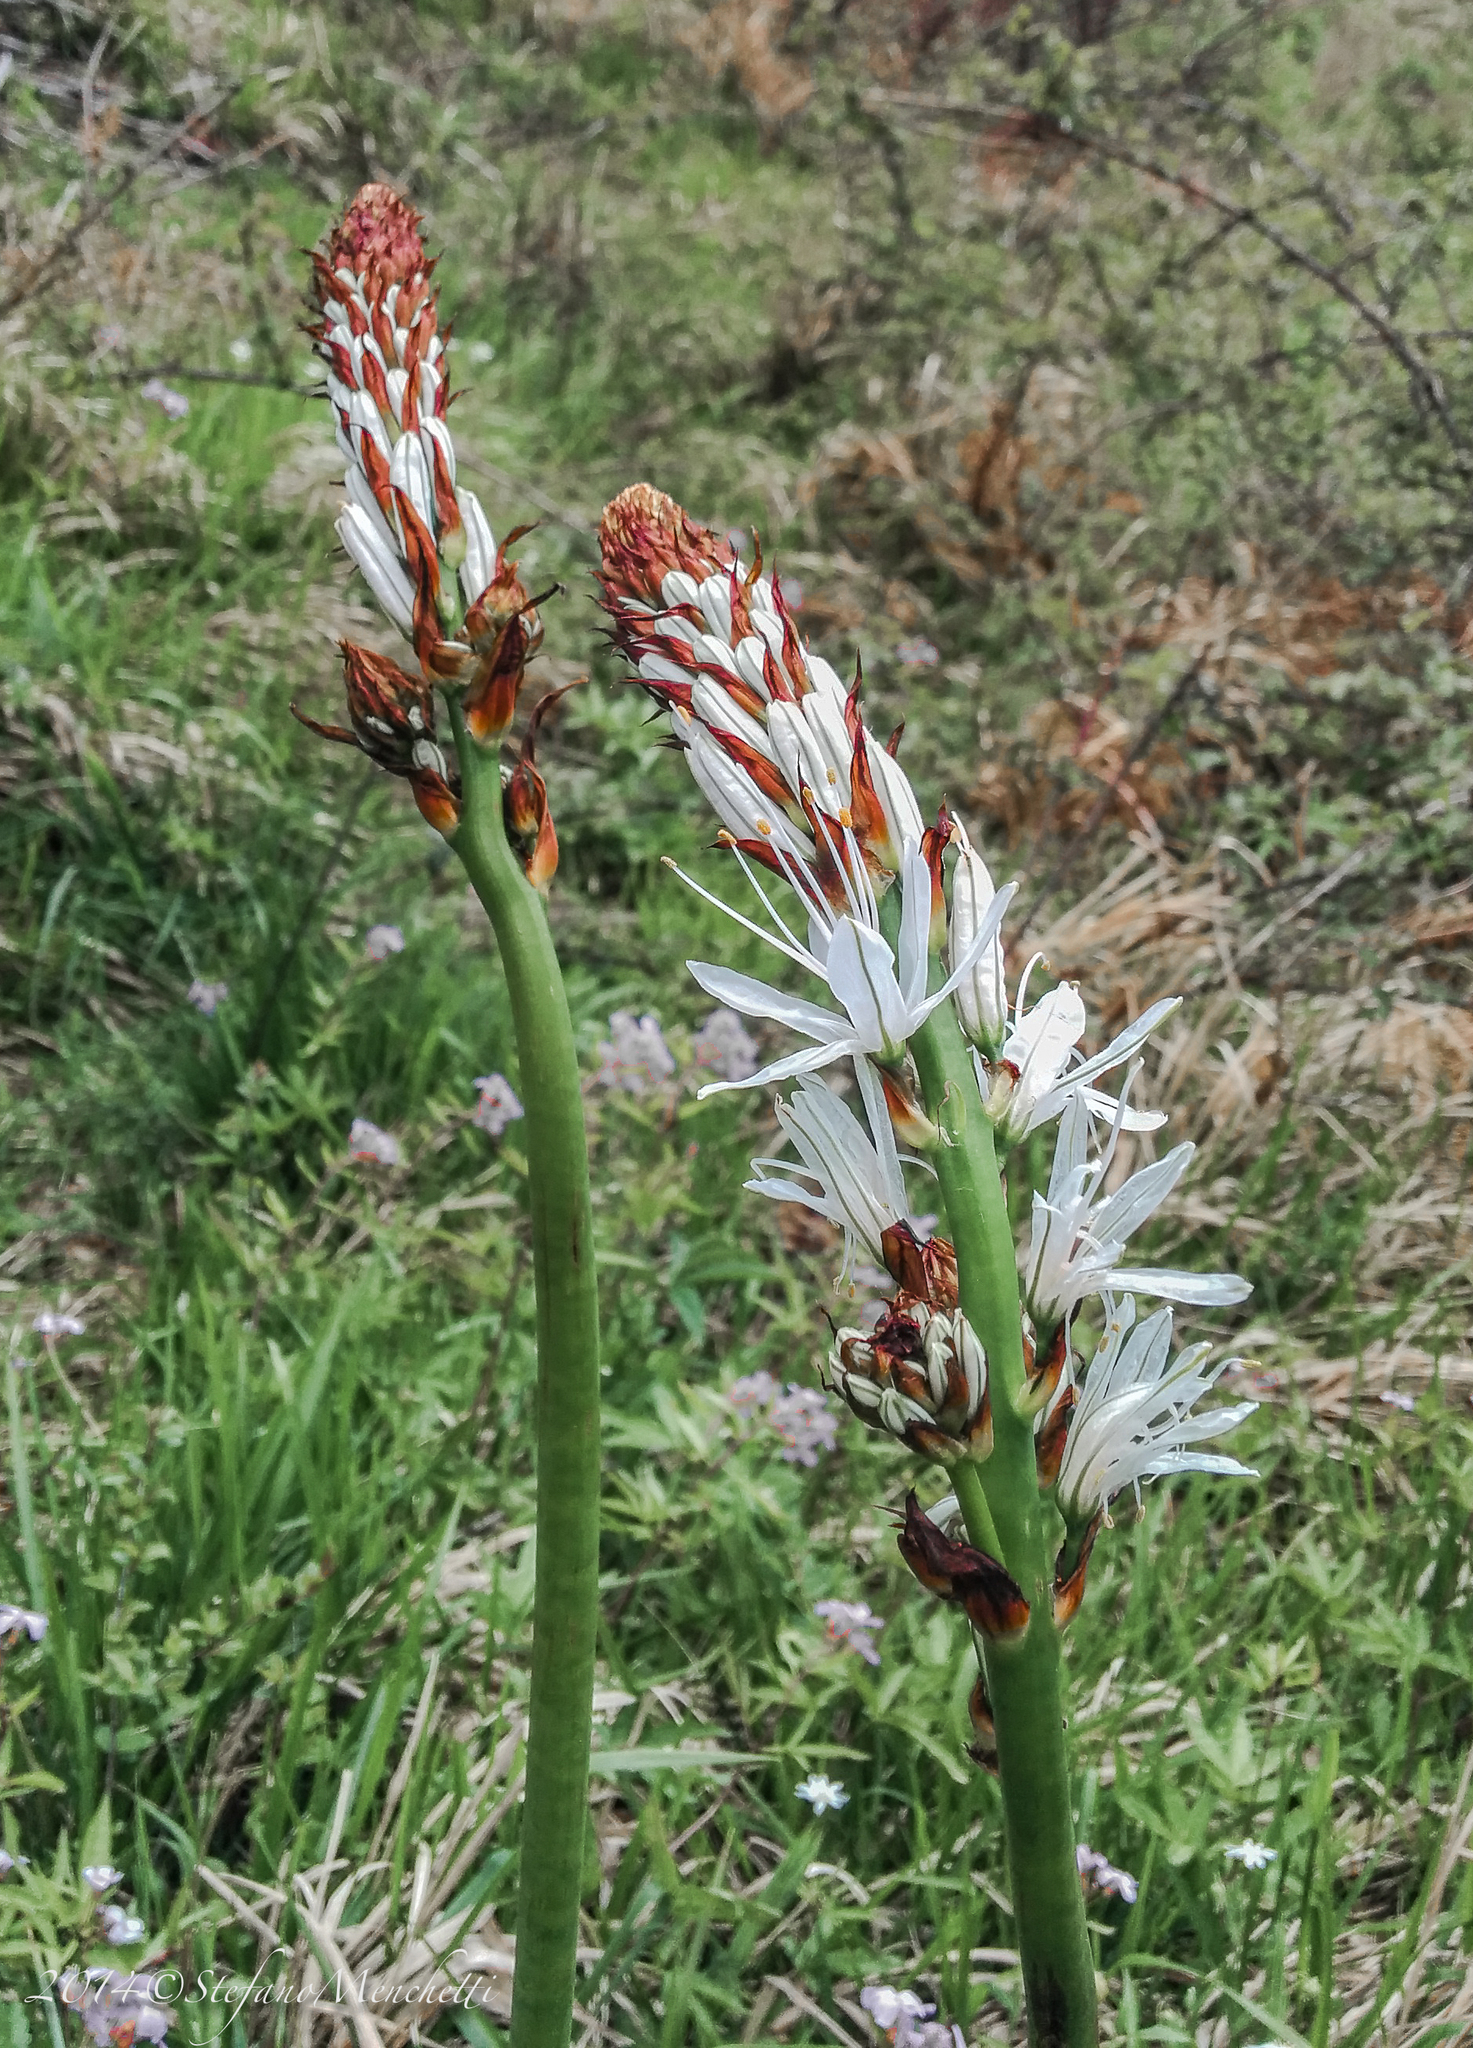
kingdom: Plantae
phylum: Tracheophyta
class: Liliopsida
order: Asparagales
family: Asphodelaceae
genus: Asphodelus
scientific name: Asphodelus macrocarpus
